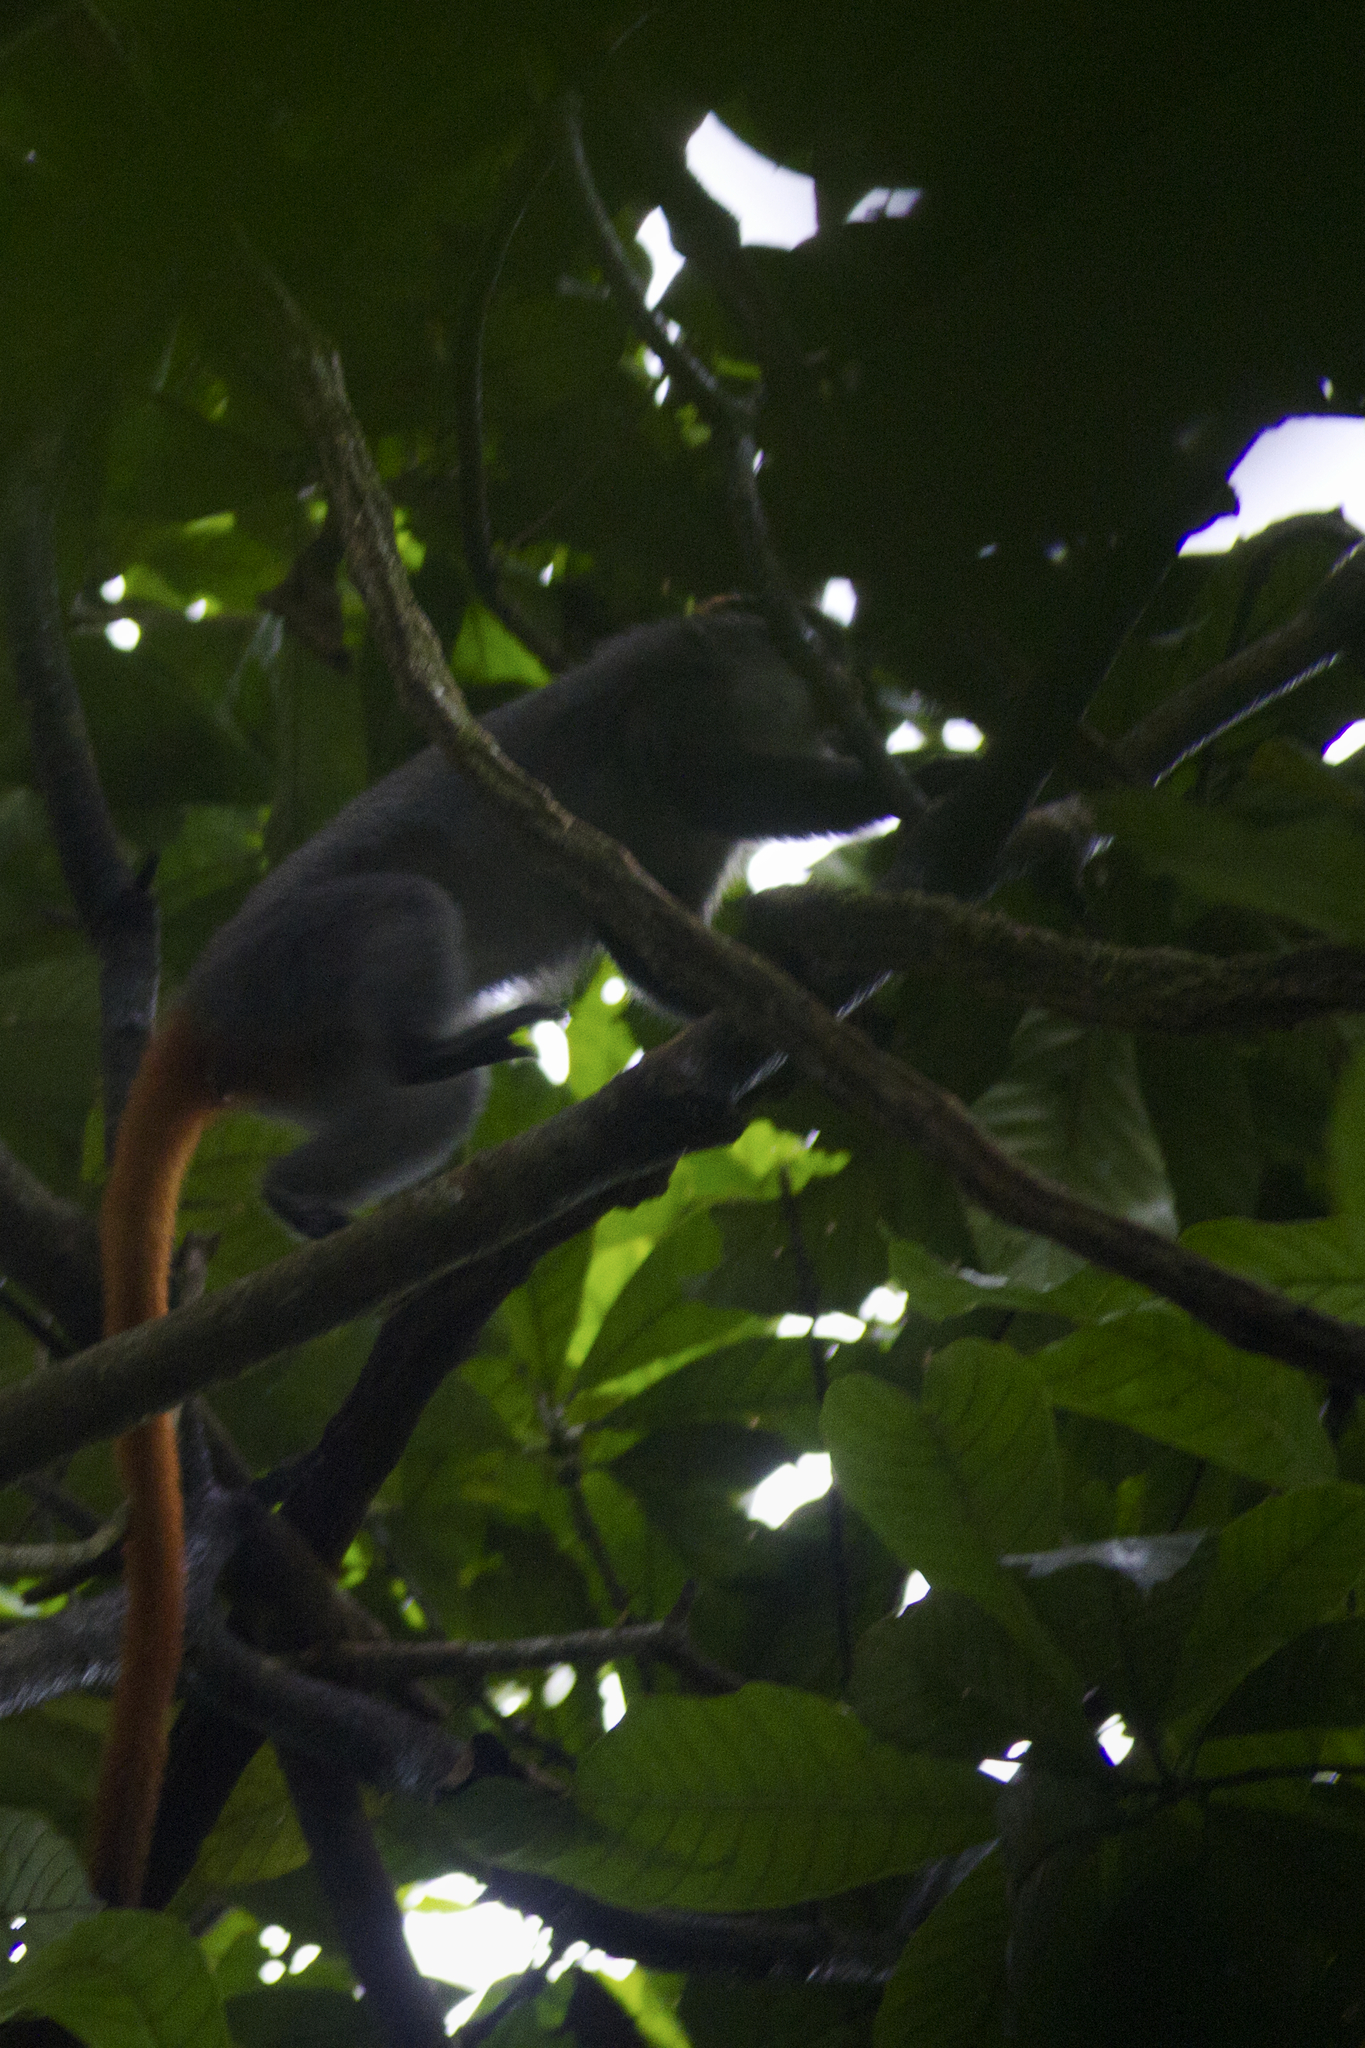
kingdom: Animalia
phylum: Chordata
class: Mammalia
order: Primates
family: Cercopithecidae
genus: Cercopithecus
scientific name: Cercopithecus erythrotis
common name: Red-eared guenon
